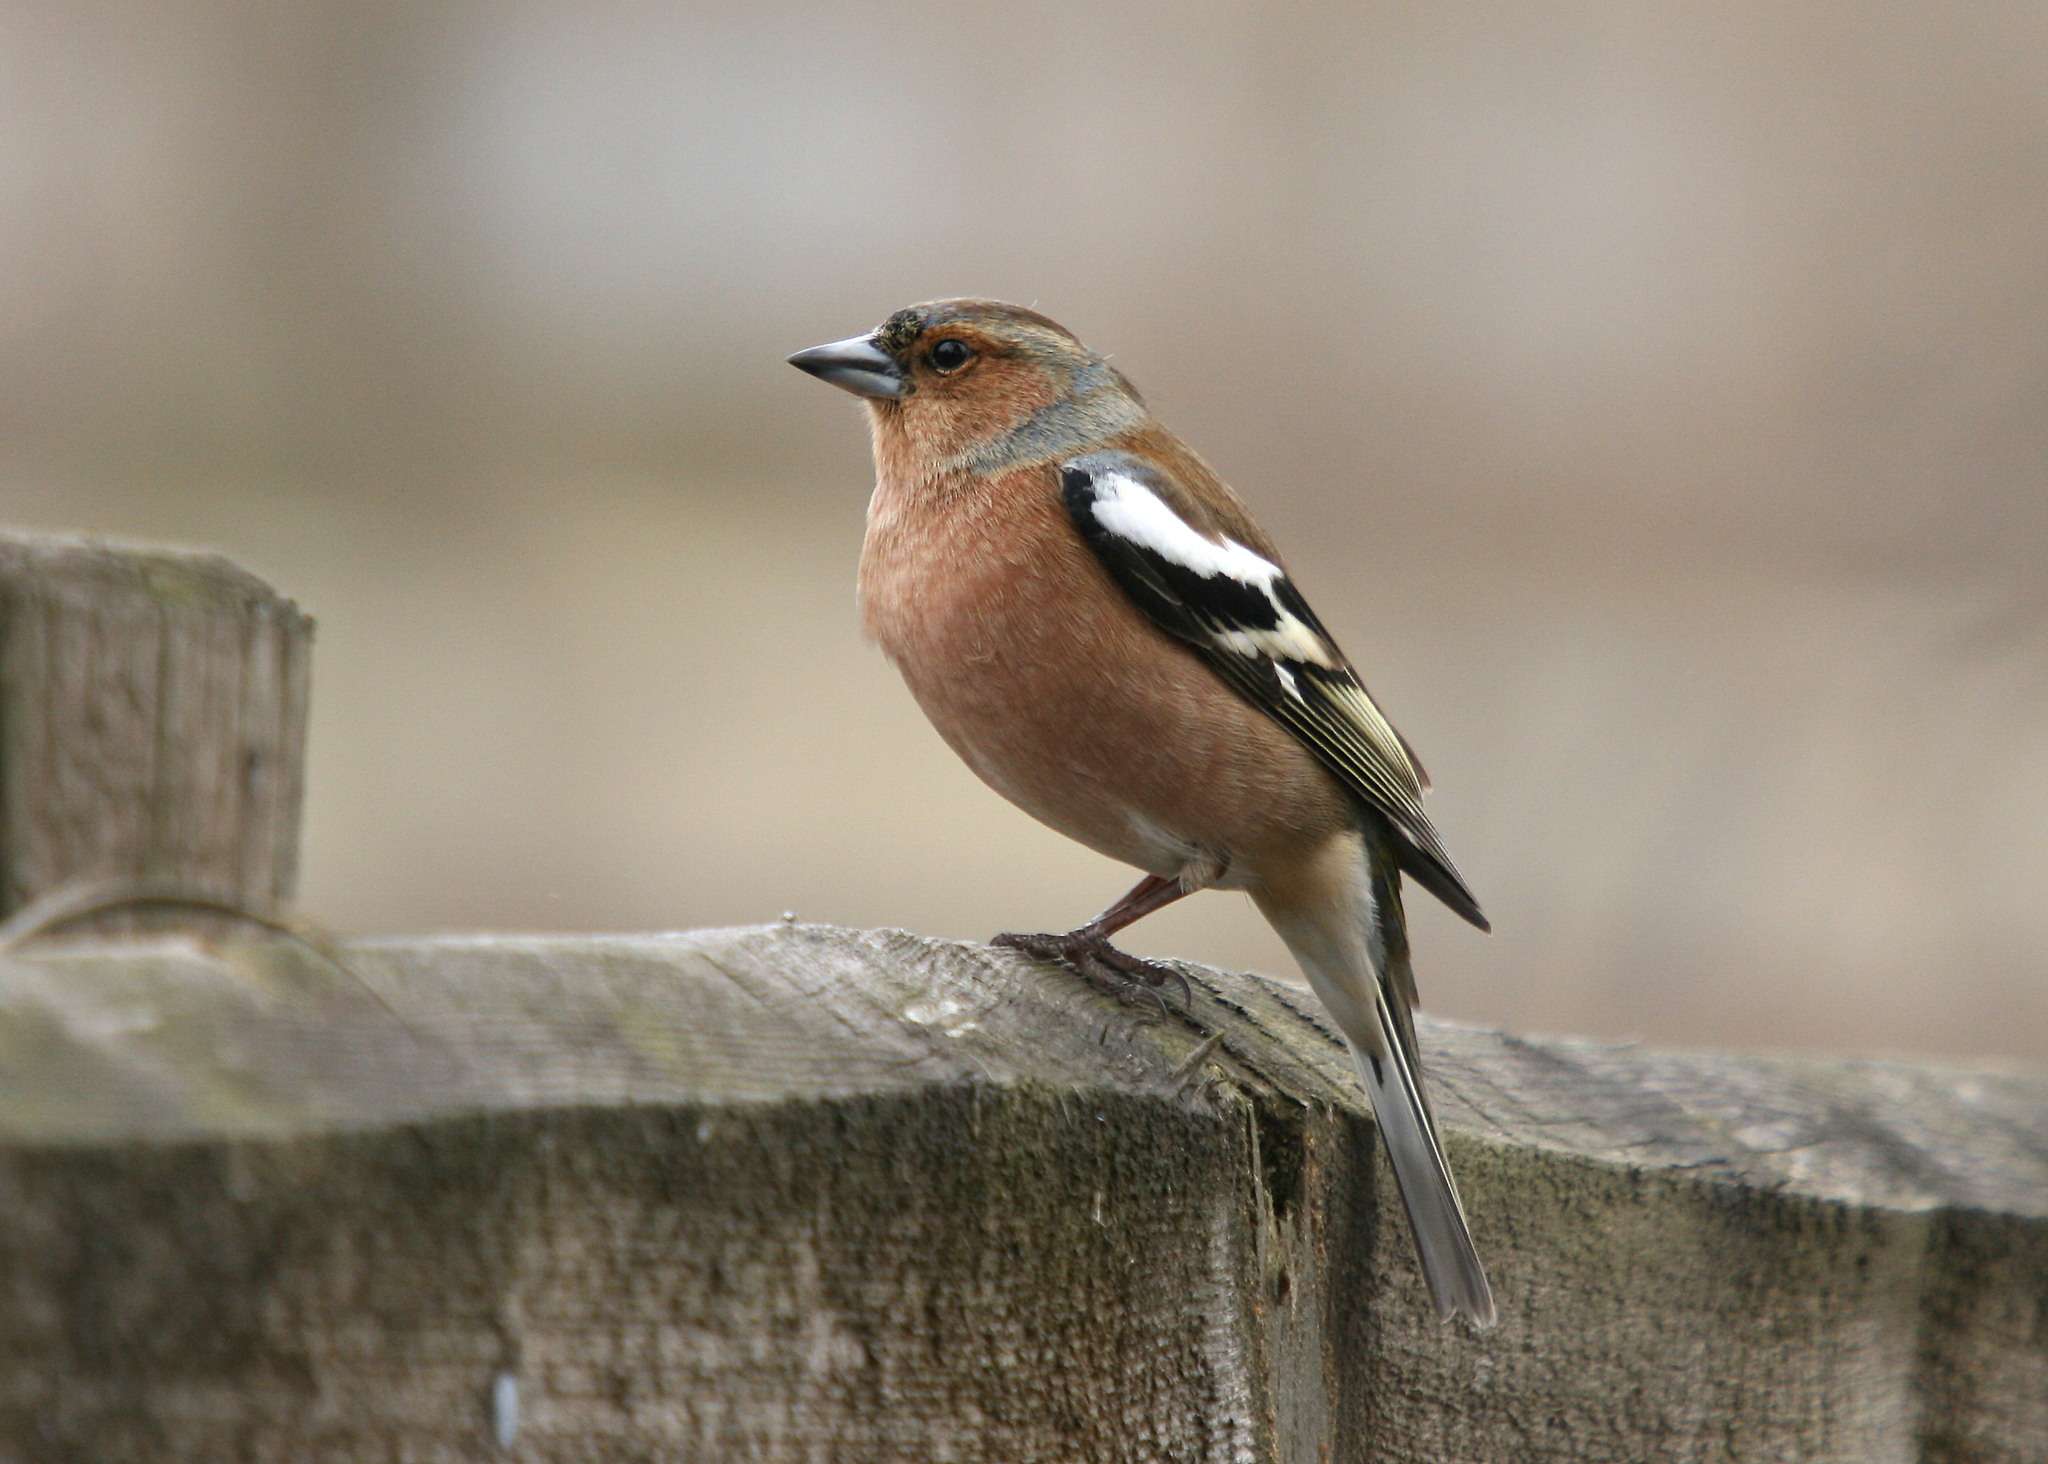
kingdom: Animalia
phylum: Chordata
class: Aves
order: Passeriformes
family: Fringillidae
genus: Fringilla
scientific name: Fringilla coelebs
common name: Common chaffinch
